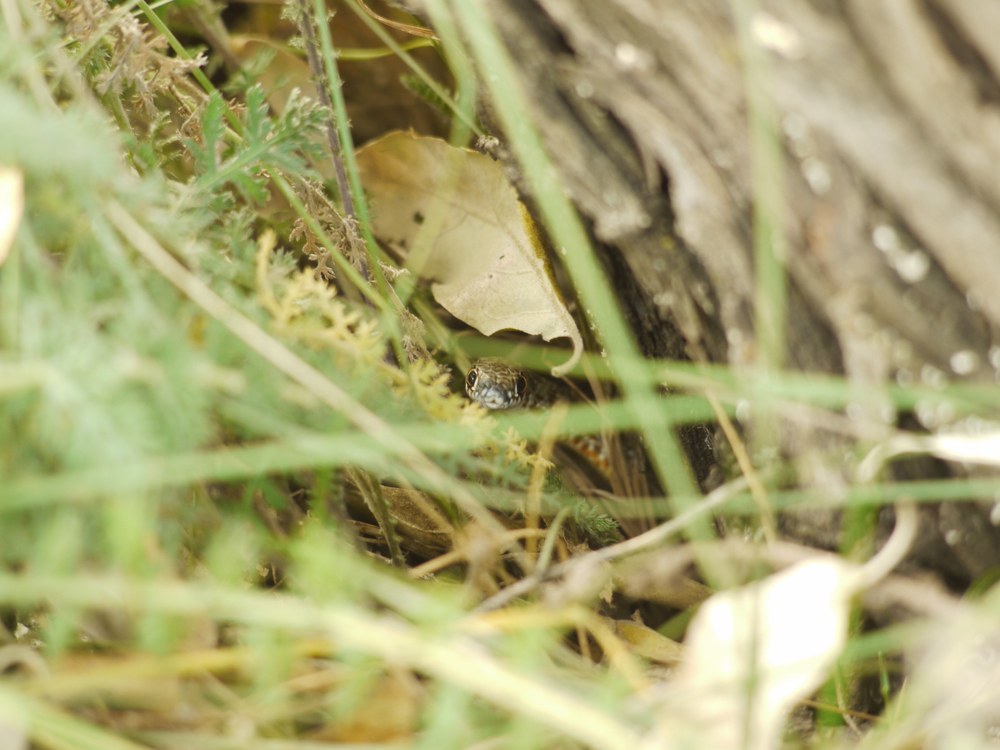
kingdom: Animalia
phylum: Chordata
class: Squamata
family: Colubridae
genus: Dolichophis
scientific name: Dolichophis caspius
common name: Large whip snake
